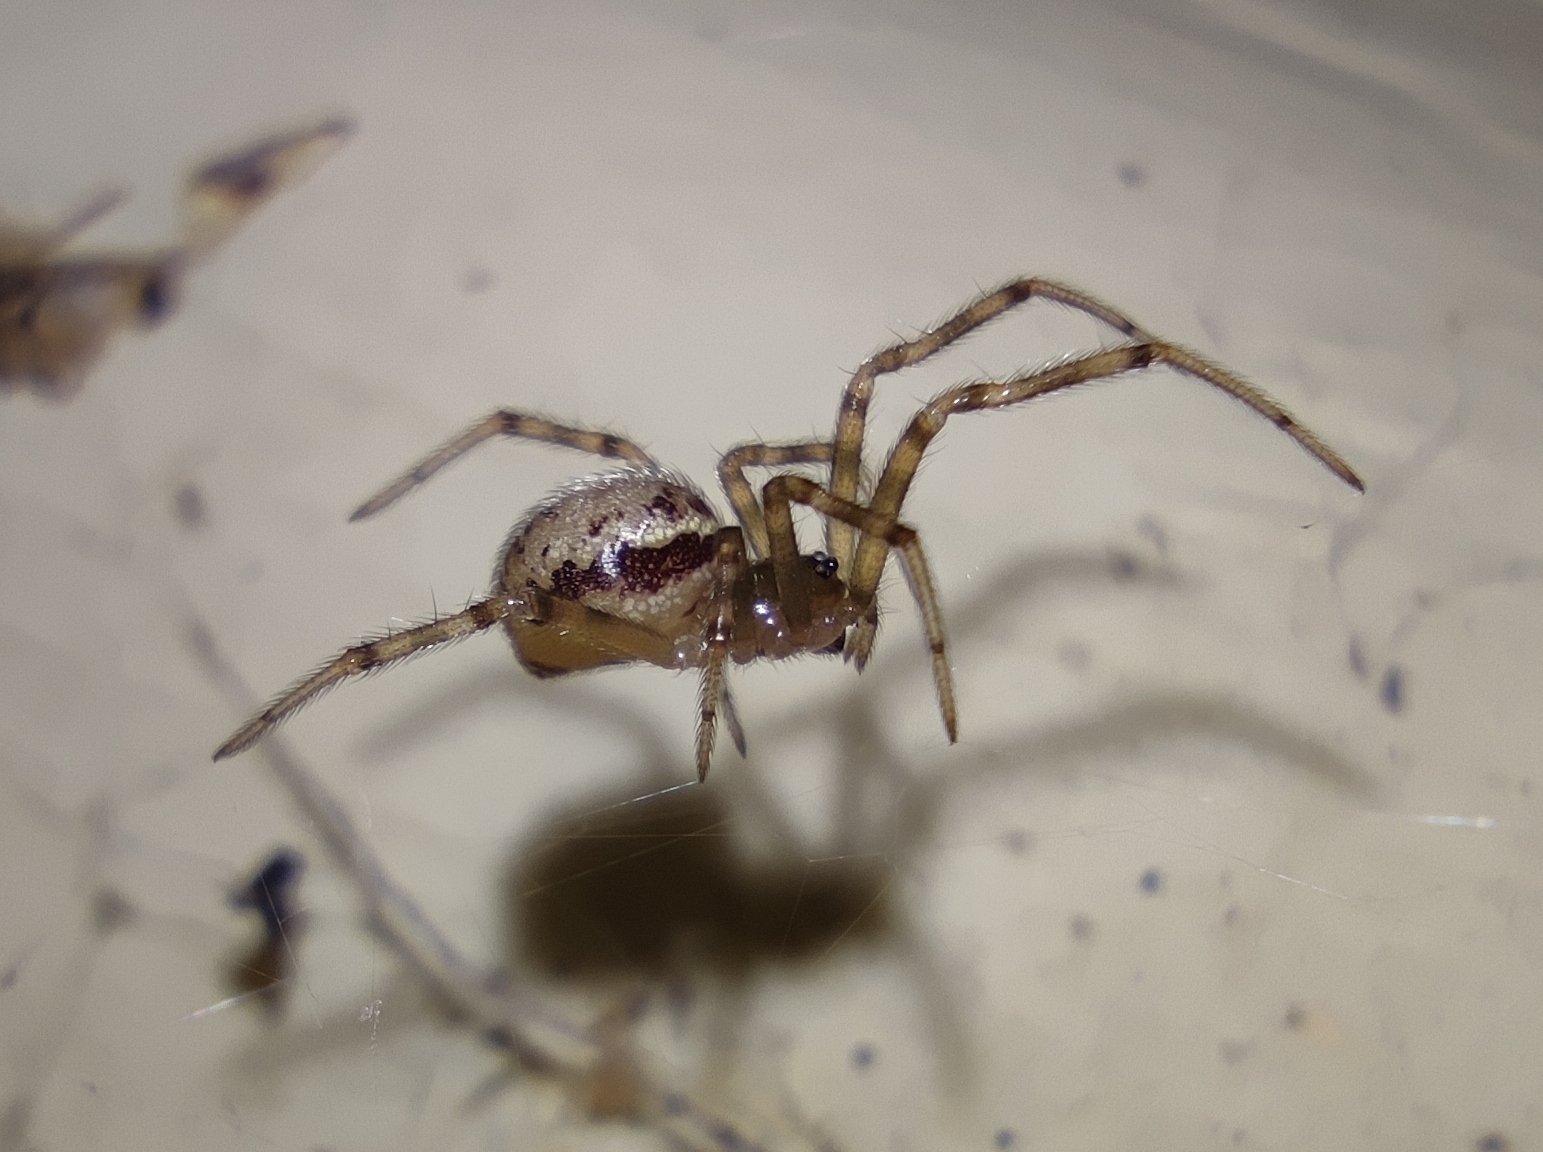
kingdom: Animalia
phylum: Arthropoda
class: Arachnida
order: Araneae
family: Theridiidae
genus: Steatoda
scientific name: Steatoda castanea
